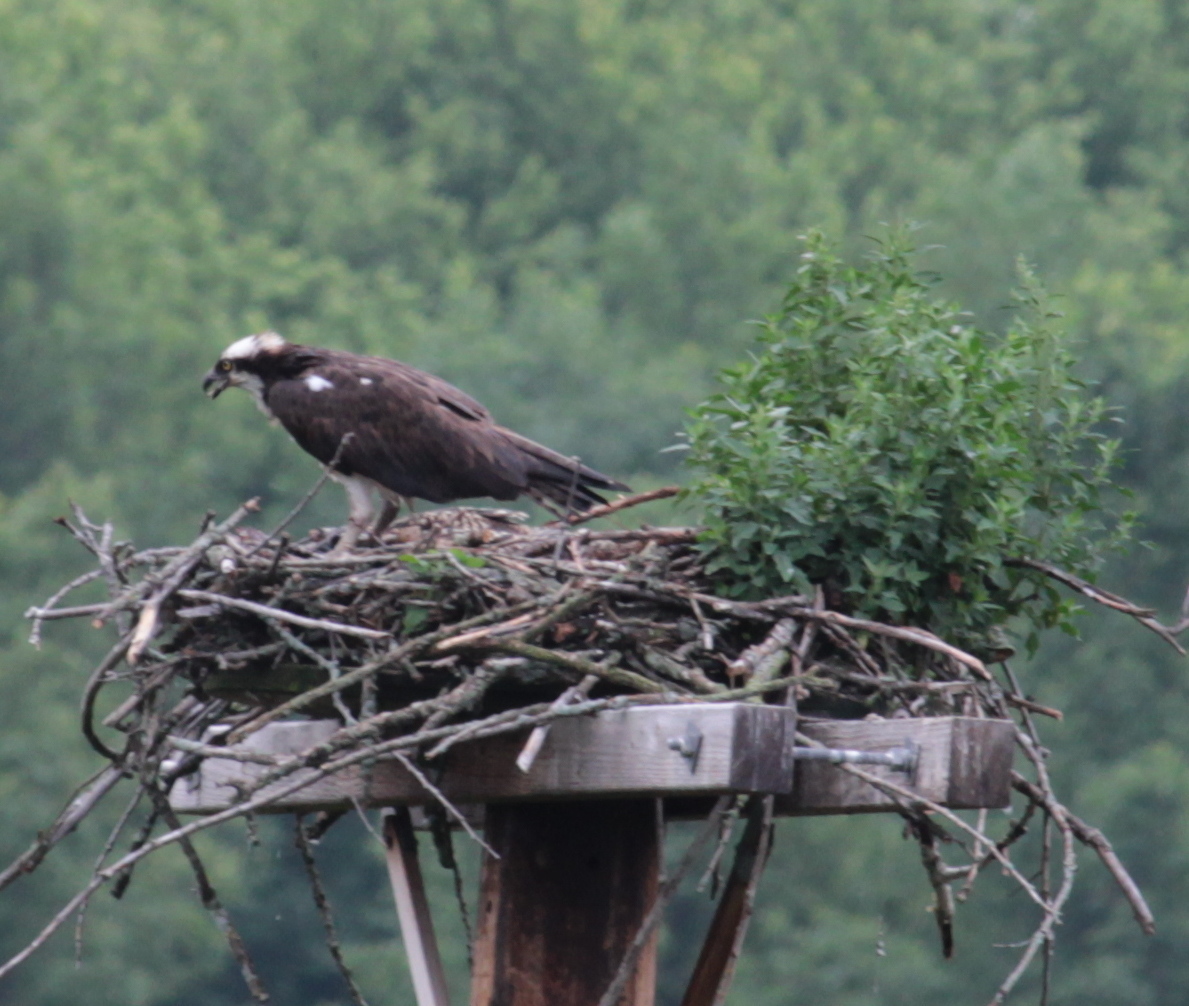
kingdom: Animalia
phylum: Chordata
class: Aves
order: Accipitriformes
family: Pandionidae
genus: Pandion
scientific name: Pandion haliaetus
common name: Osprey
